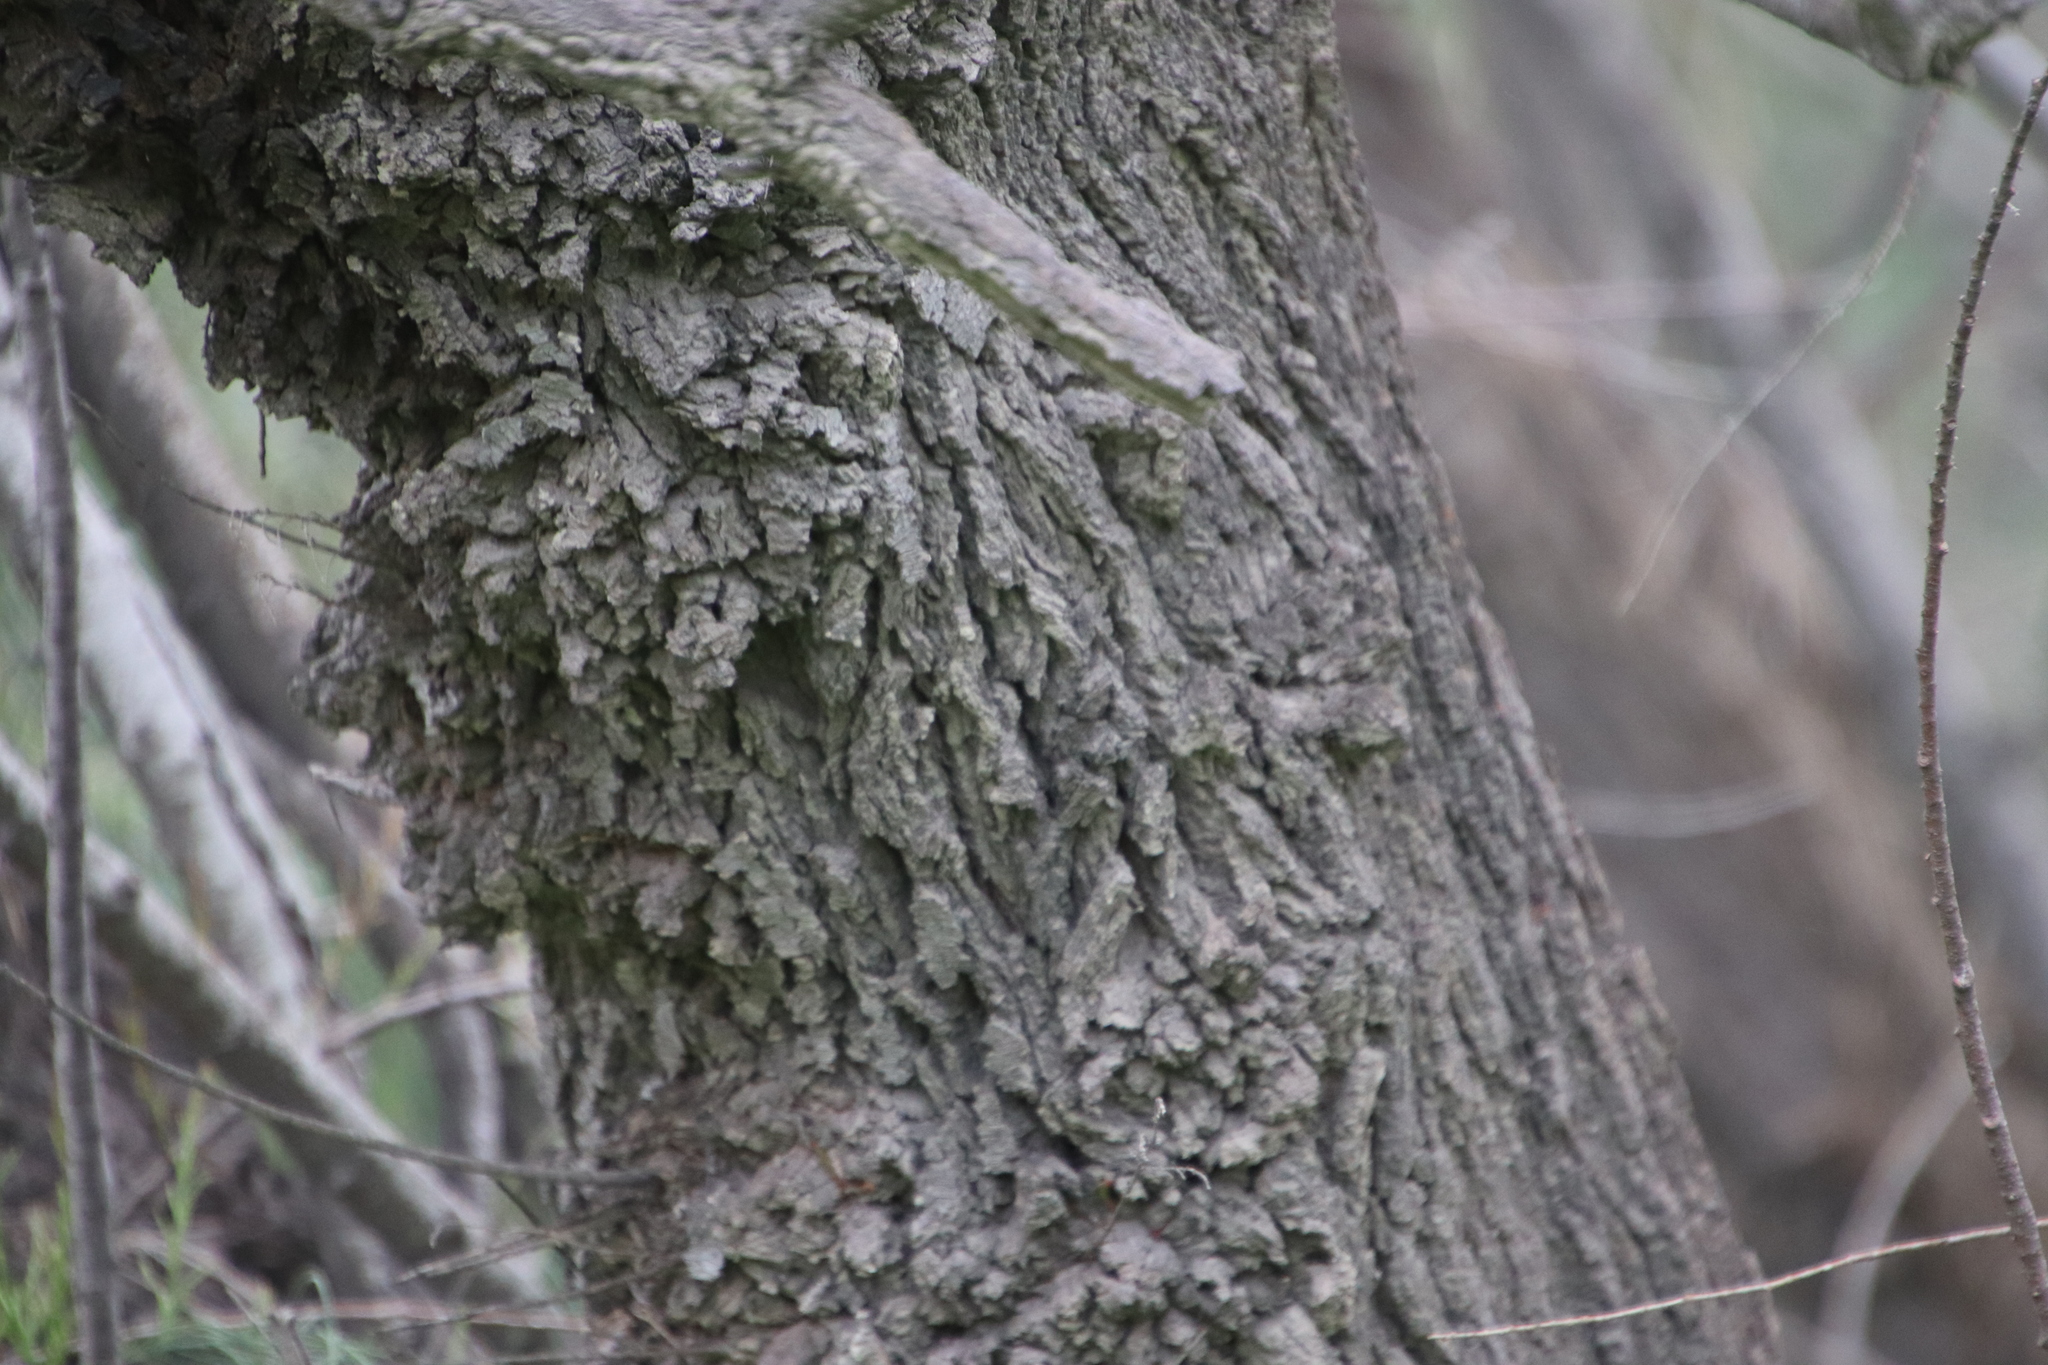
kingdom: Plantae
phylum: Tracheophyta
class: Magnoliopsida
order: Caryophyllales
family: Tamaricaceae
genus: Tamarix
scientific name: Tamarix aphylla
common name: Athel tamarisk
